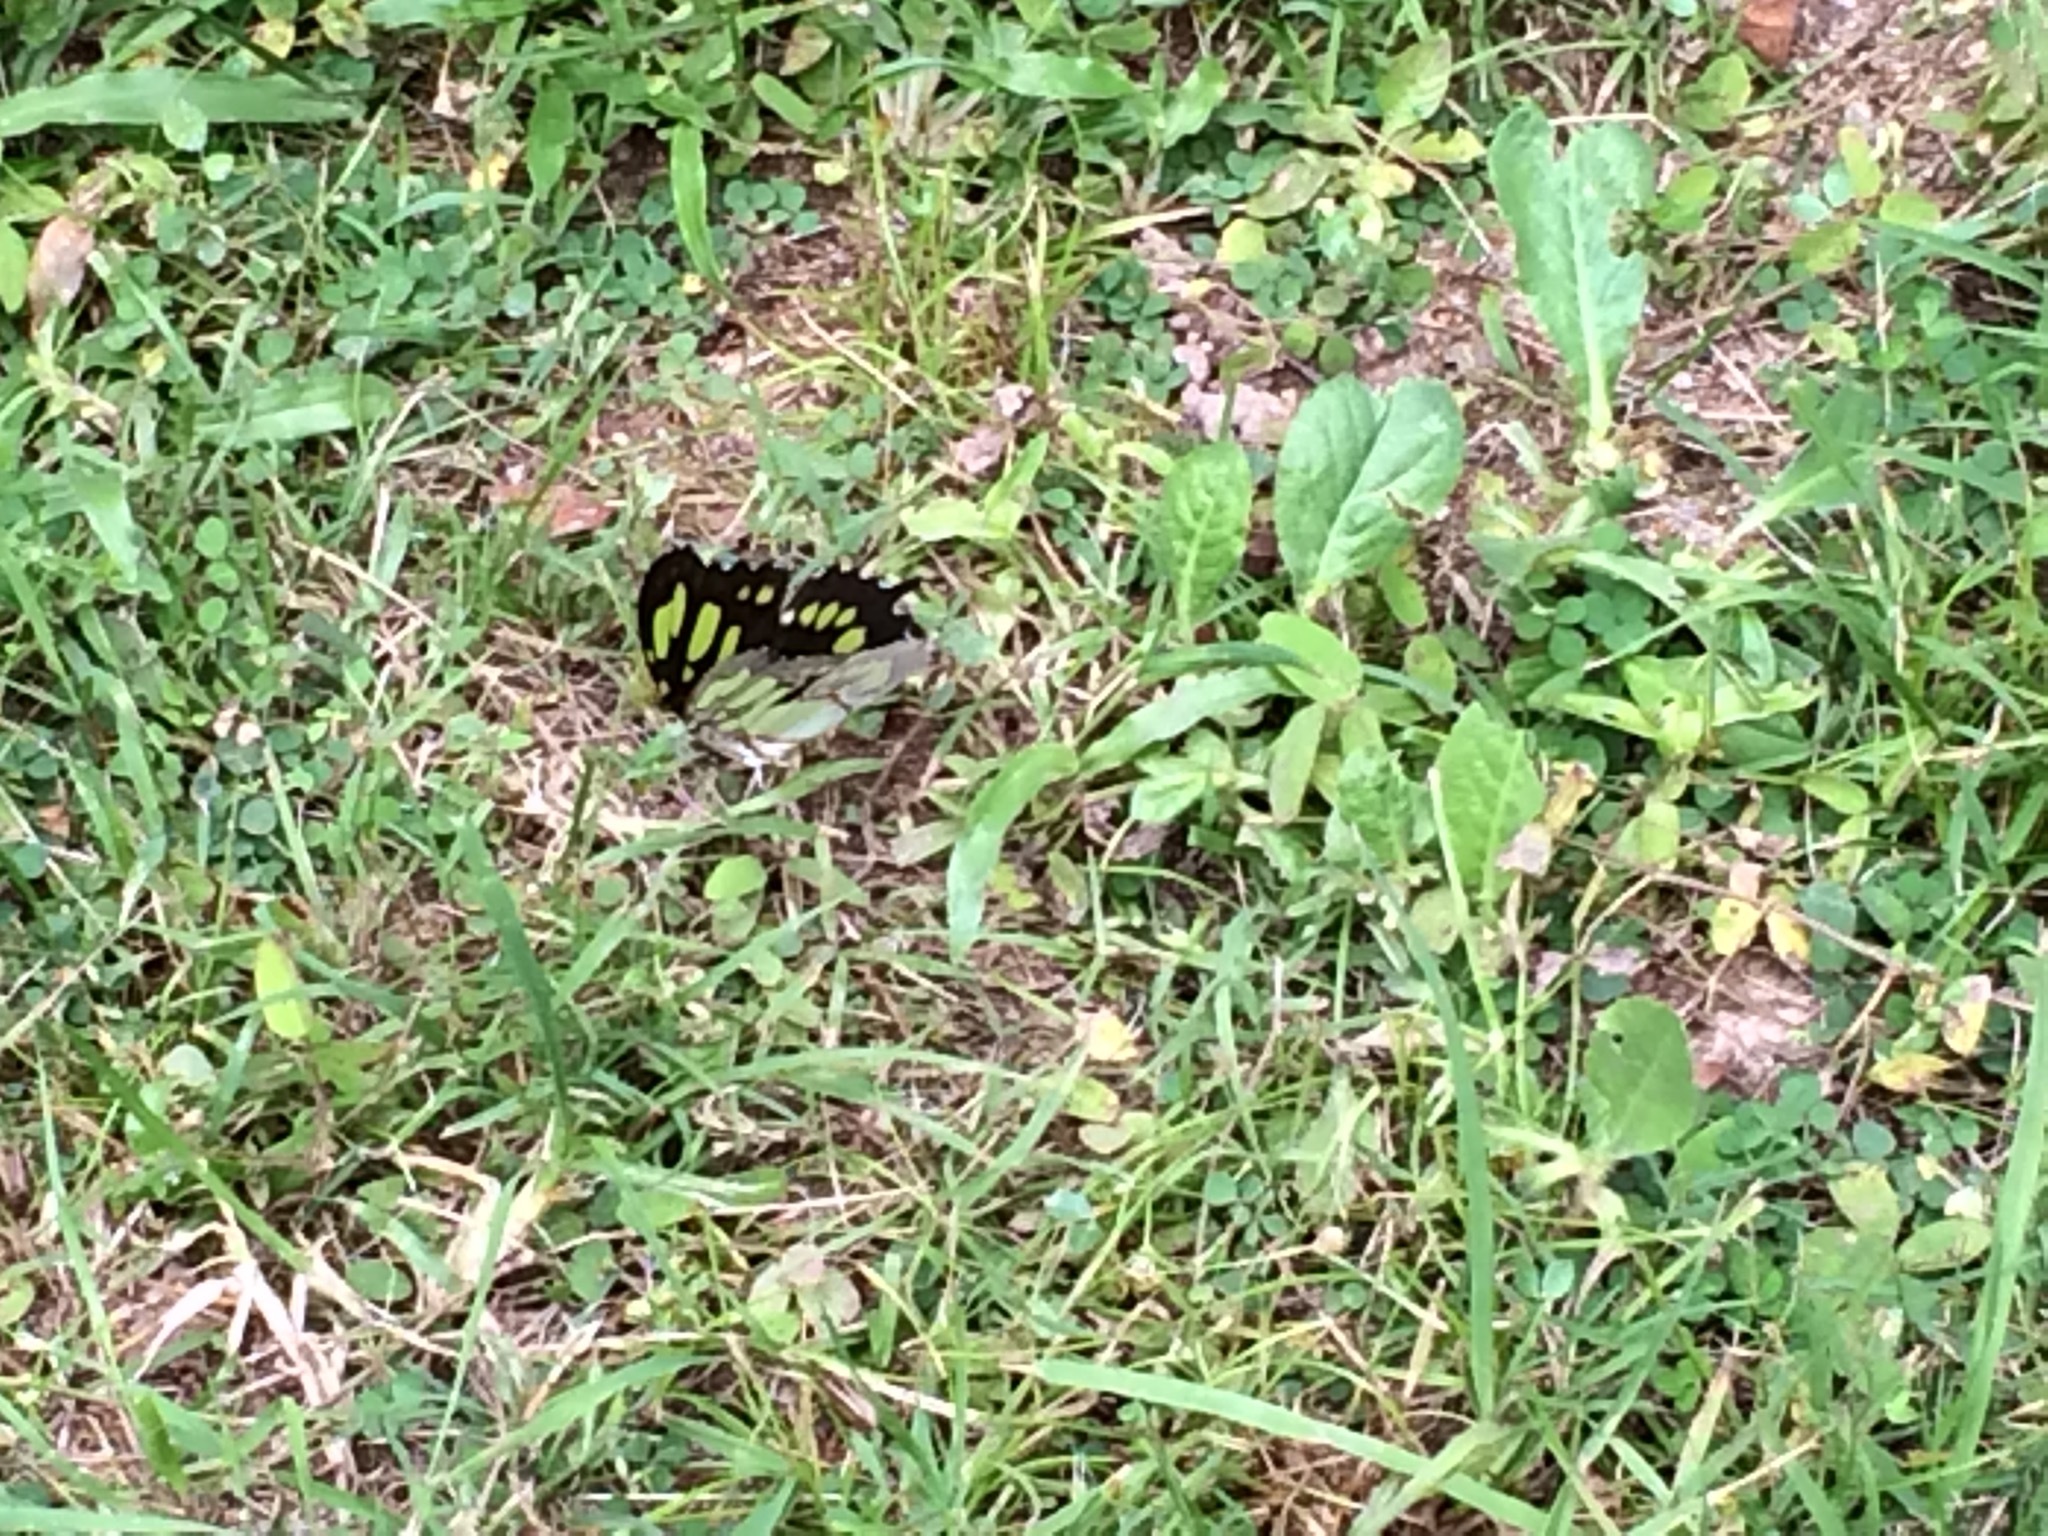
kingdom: Animalia
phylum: Arthropoda
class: Insecta
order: Lepidoptera
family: Nymphalidae
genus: Siproeta
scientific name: Siproeta stelenes
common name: Malachite
